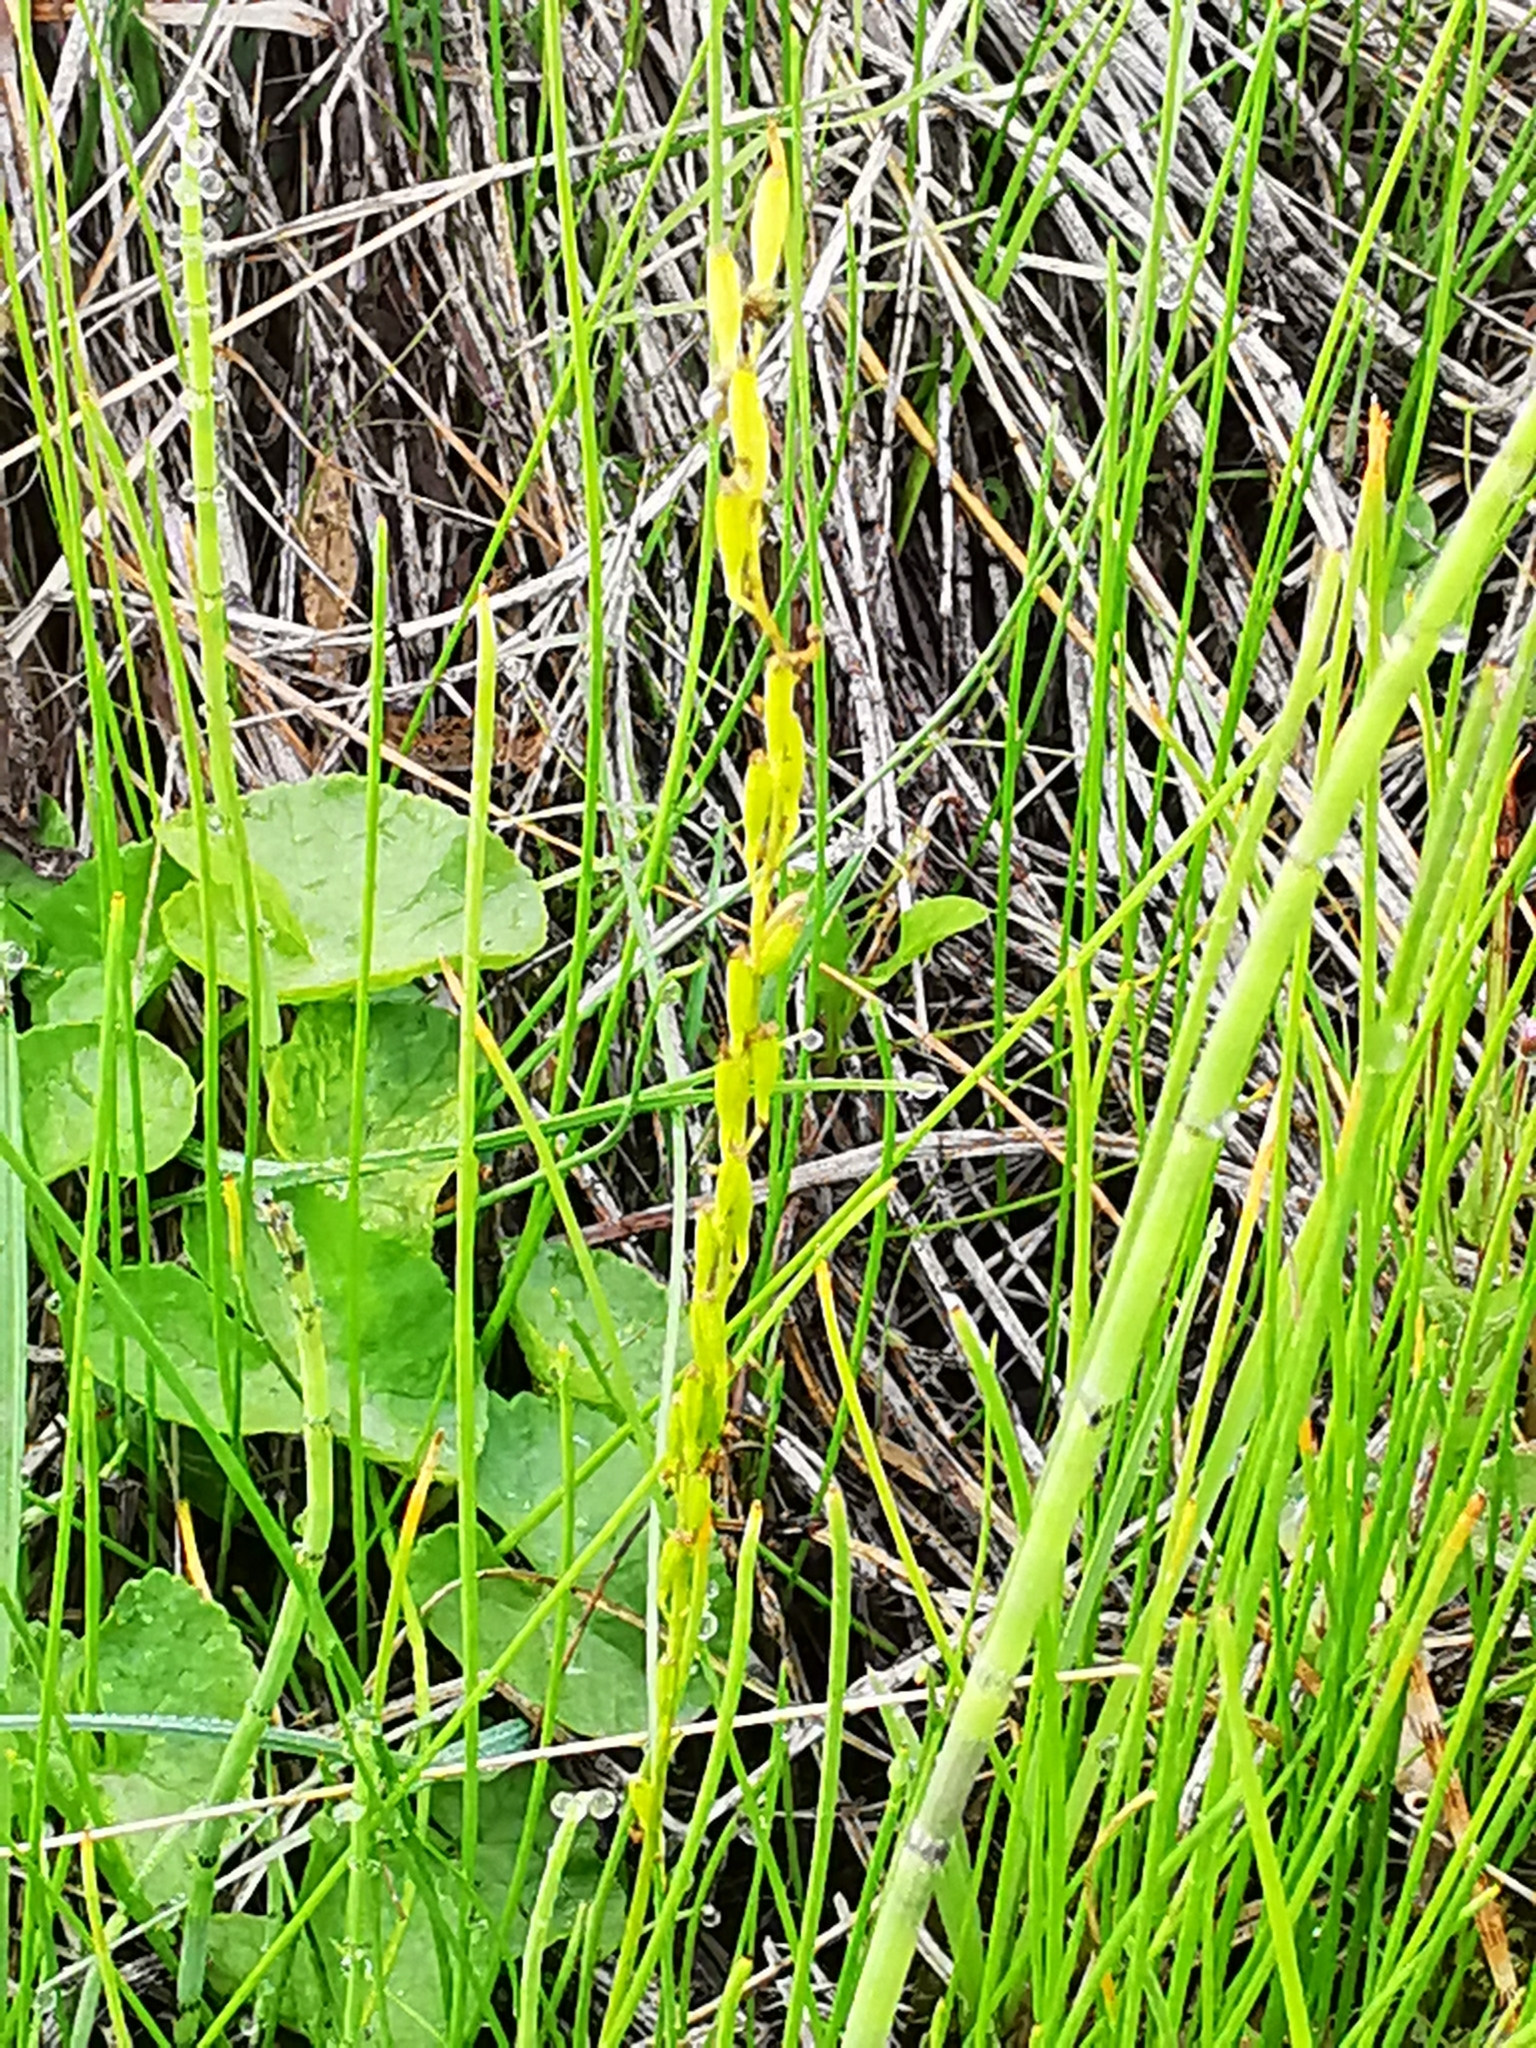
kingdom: Plantae
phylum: Tracheophyta
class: Liliopsida
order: Alismatales
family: Juncaginaceae
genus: Triglochin
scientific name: Triglochin palustris
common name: Marsh arrowgrass
